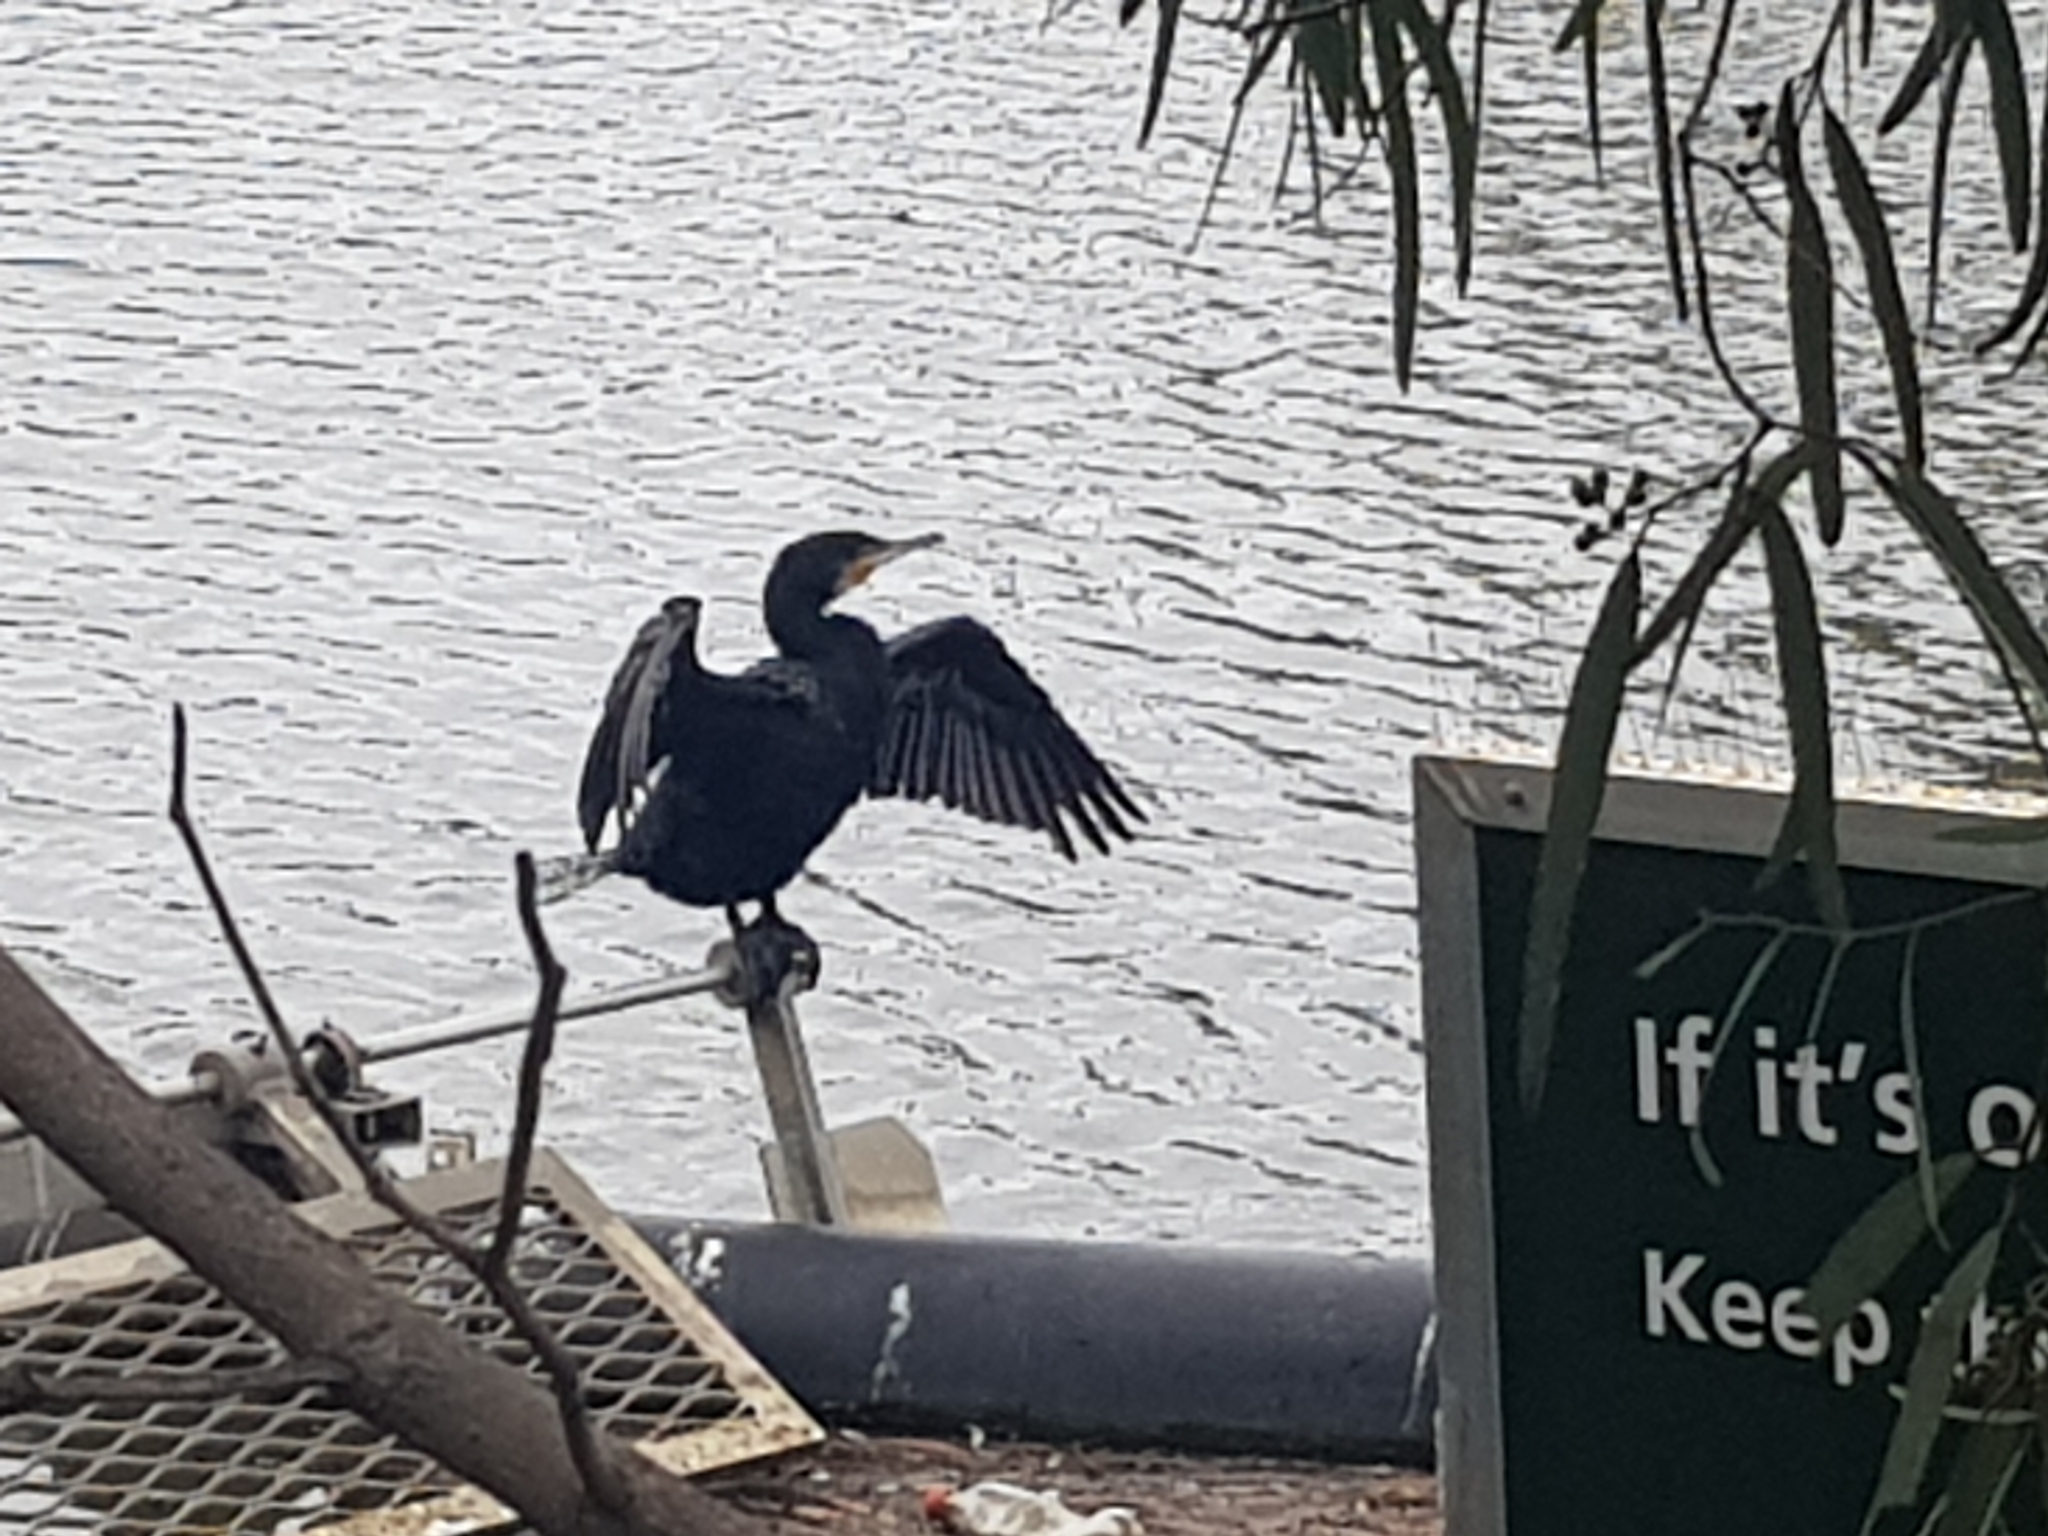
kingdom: Animalia
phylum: Chordata
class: Aves
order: Suliformes
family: Phalacrocoracidae
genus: Phalacrocorax
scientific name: Phalacrocorax carbo
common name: Great cormorant
